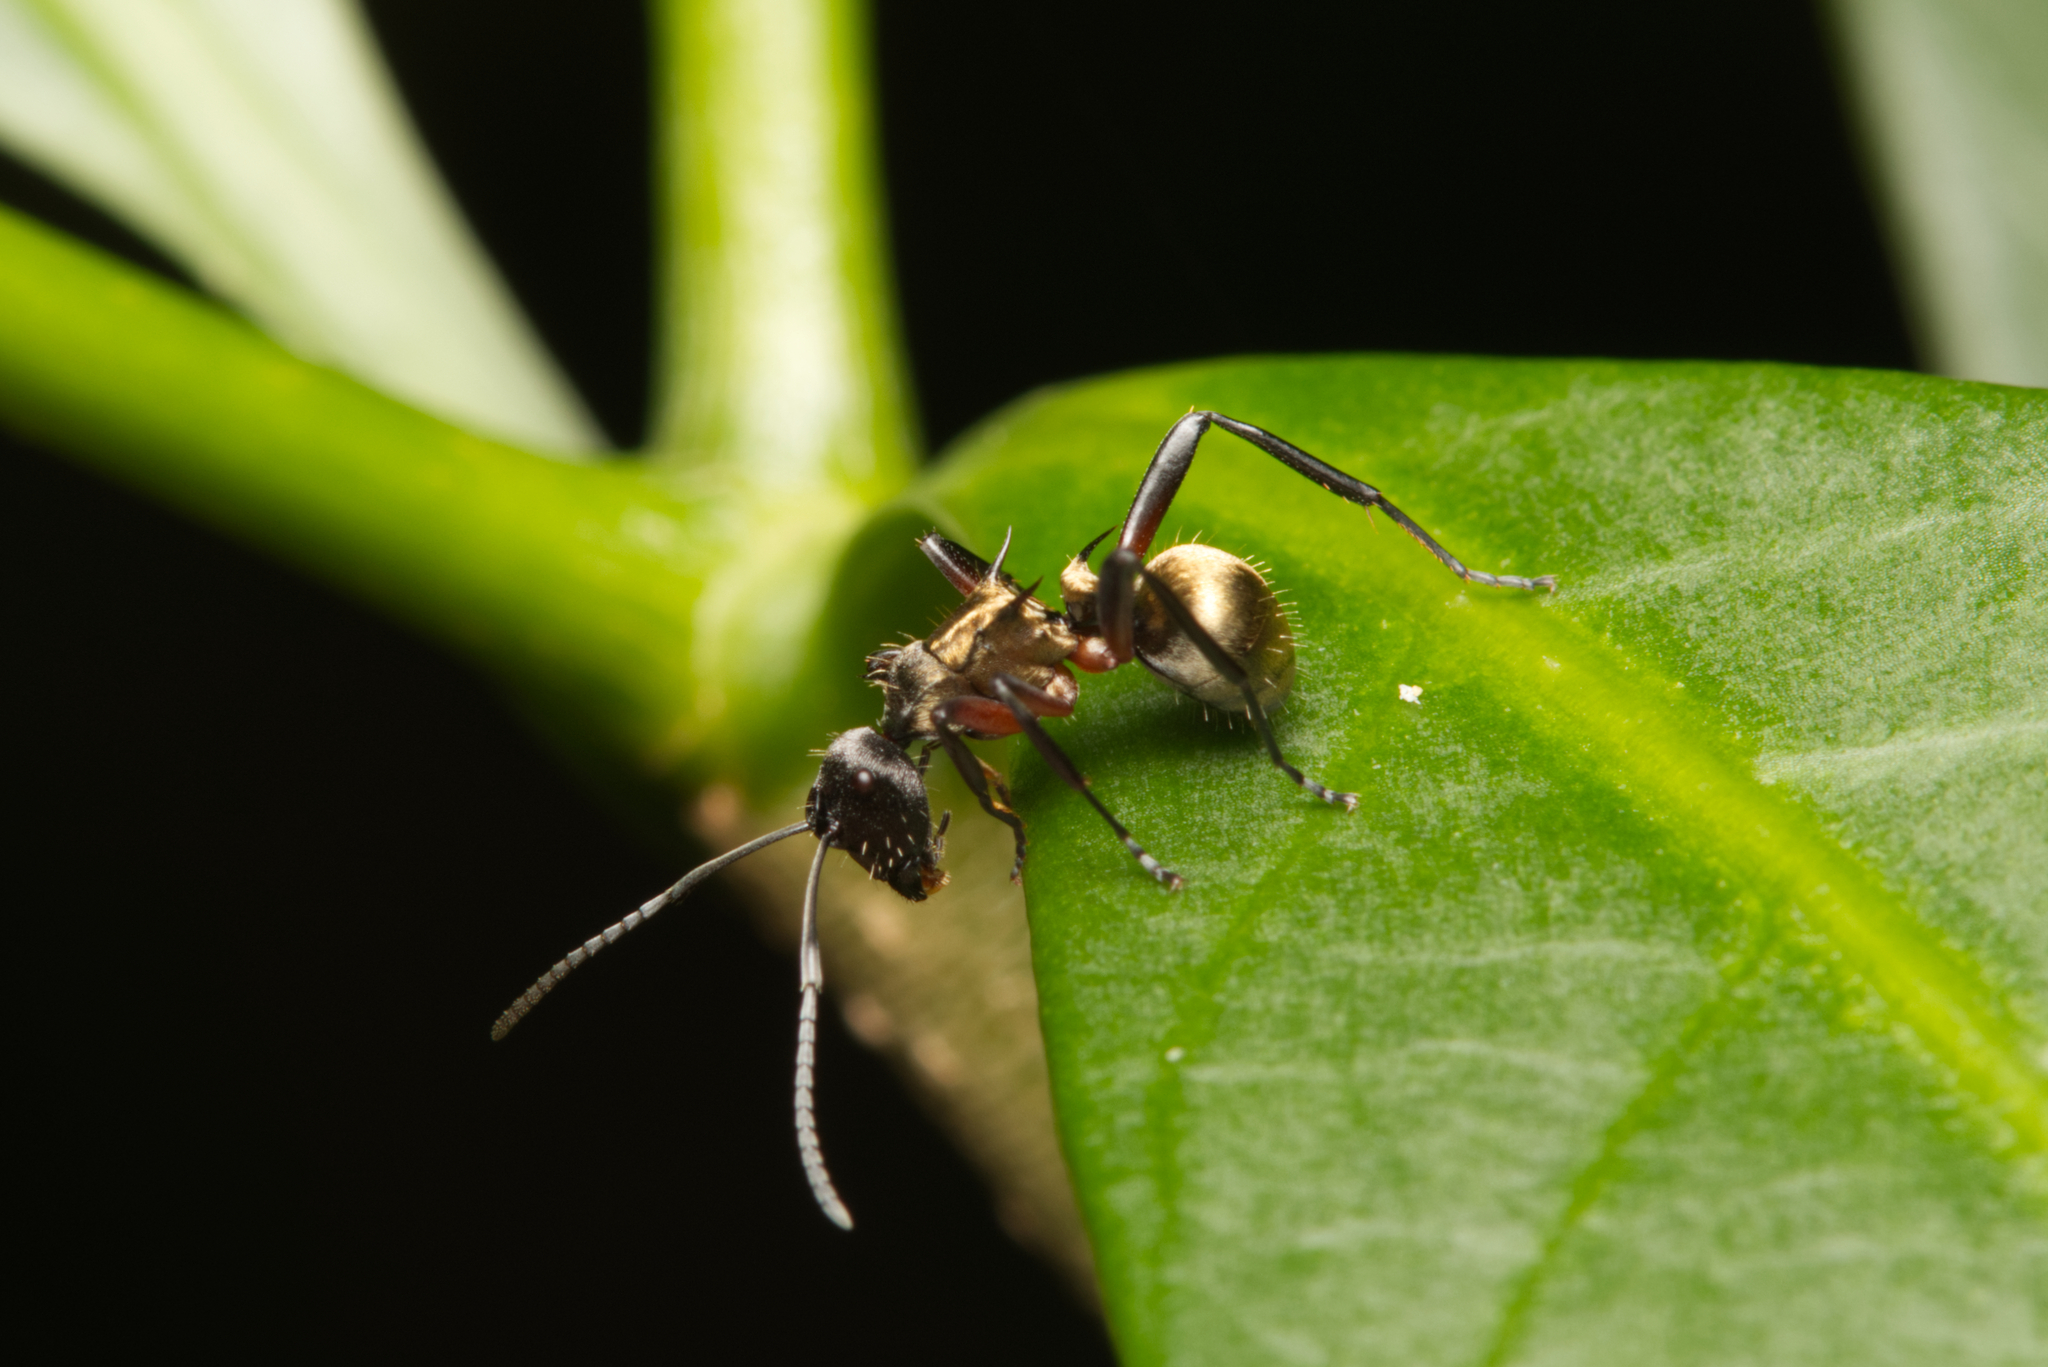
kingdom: Animalia
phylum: Arthropoda
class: Insecta
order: Hymenoptera
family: Formicidae
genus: Polyrhachis
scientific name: Polyrhachis rufifemur
